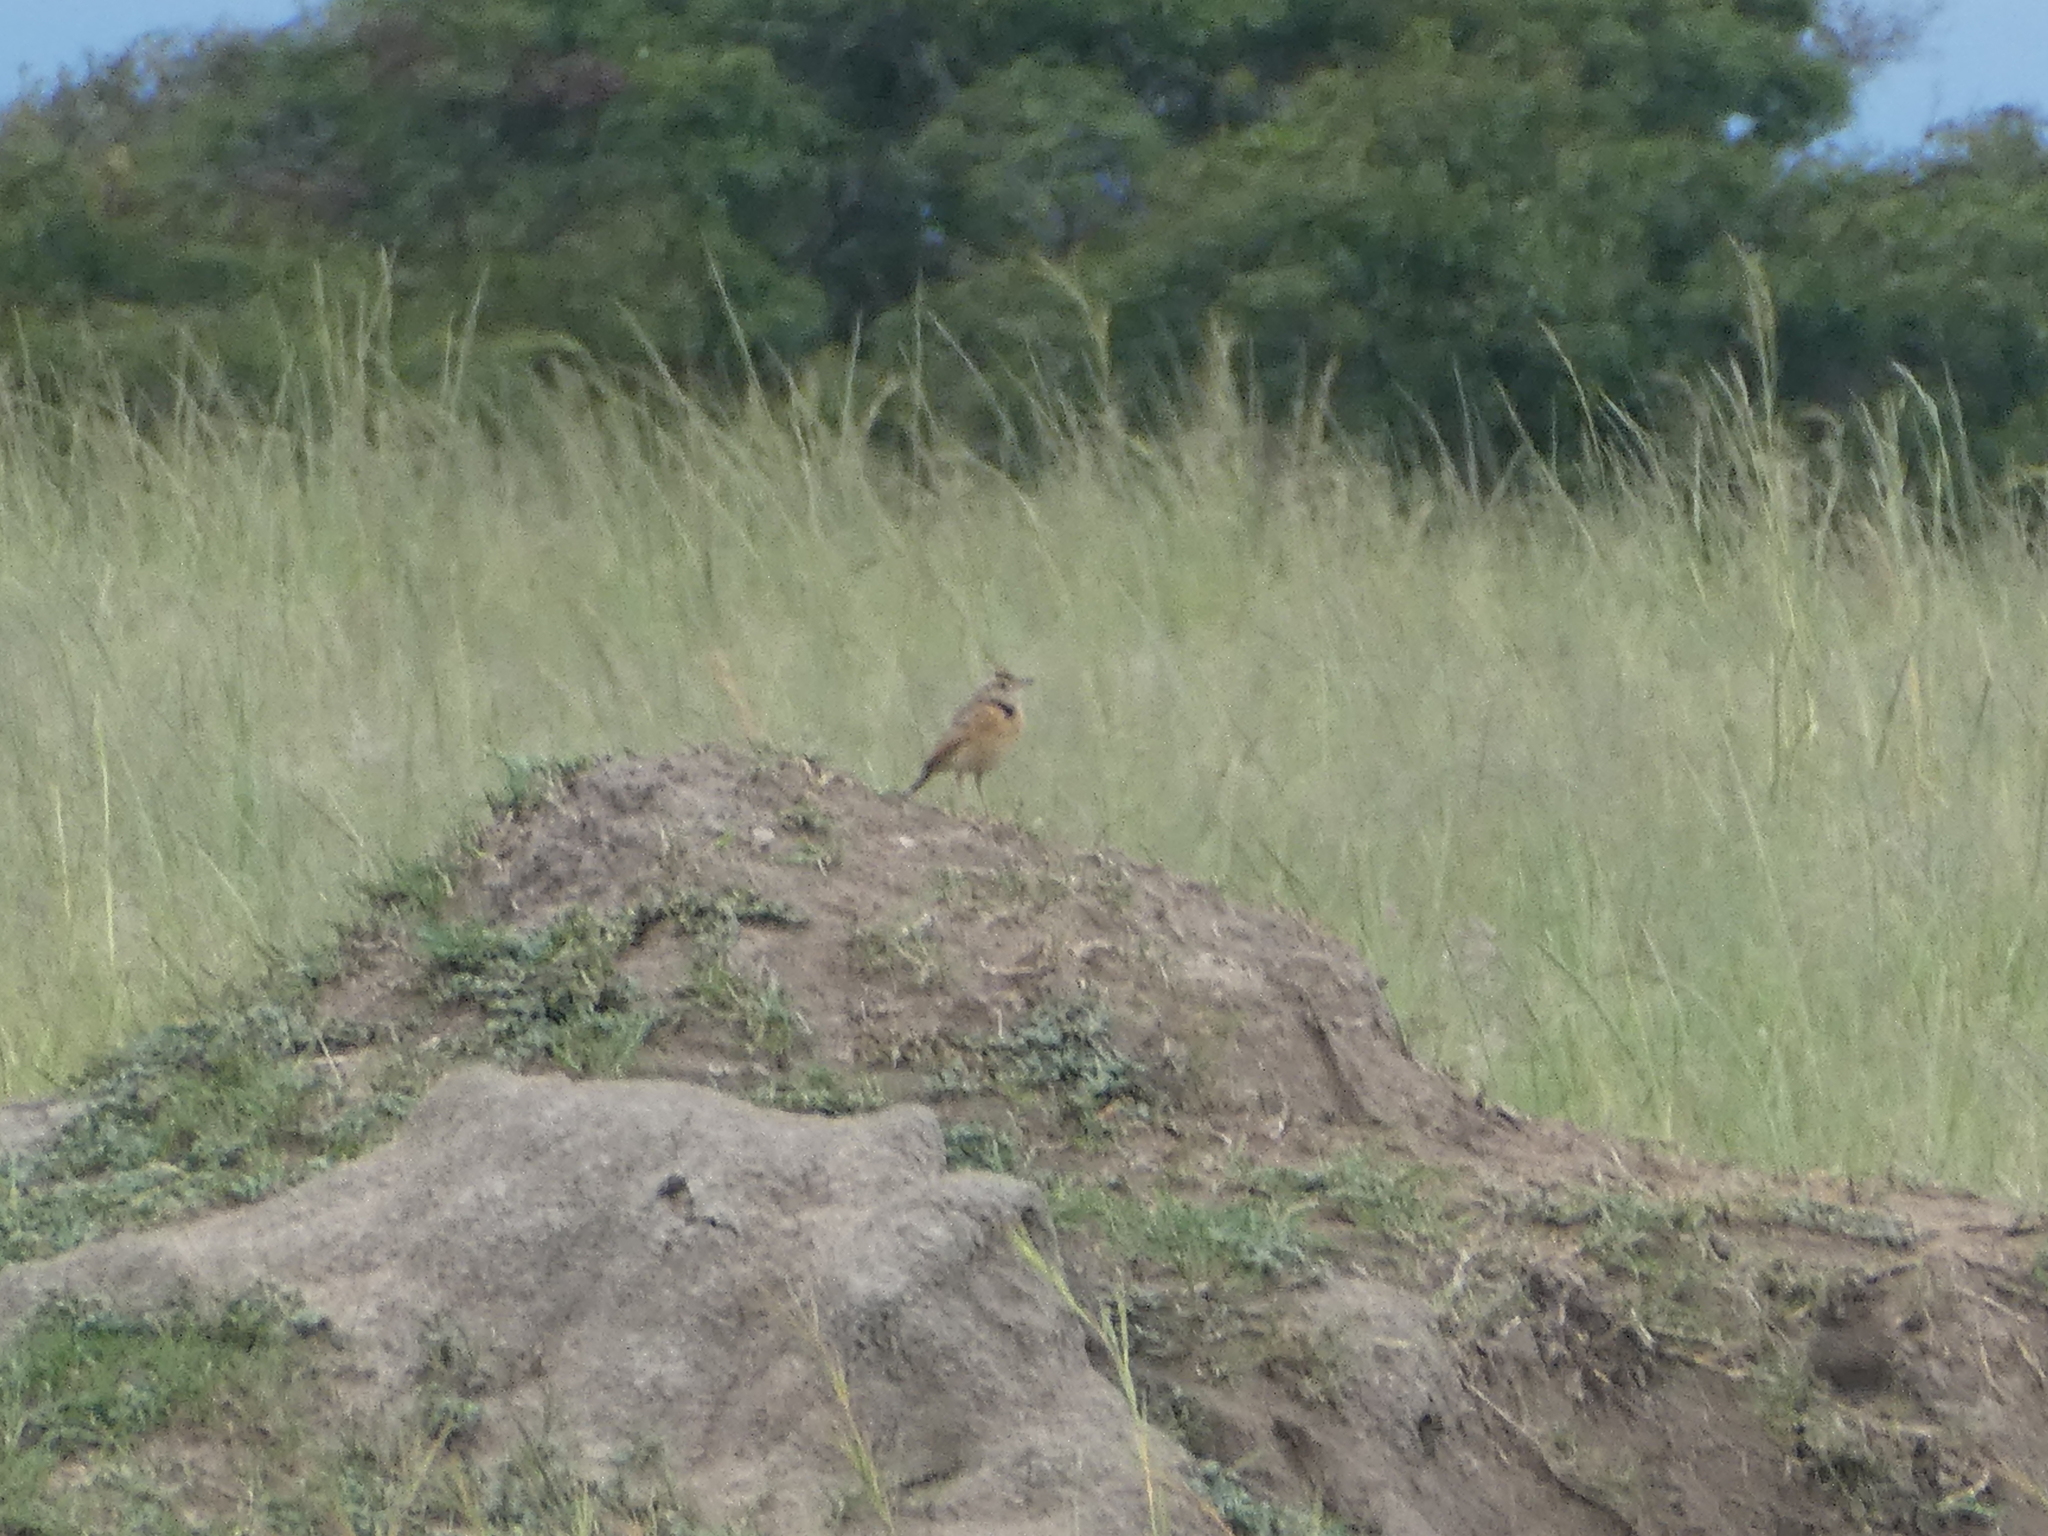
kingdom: Animalia
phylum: Chordata
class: Aves
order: Passeriformes
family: Motacillidae
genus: Anthus
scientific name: Anthus cinnamomeus
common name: African pipit
